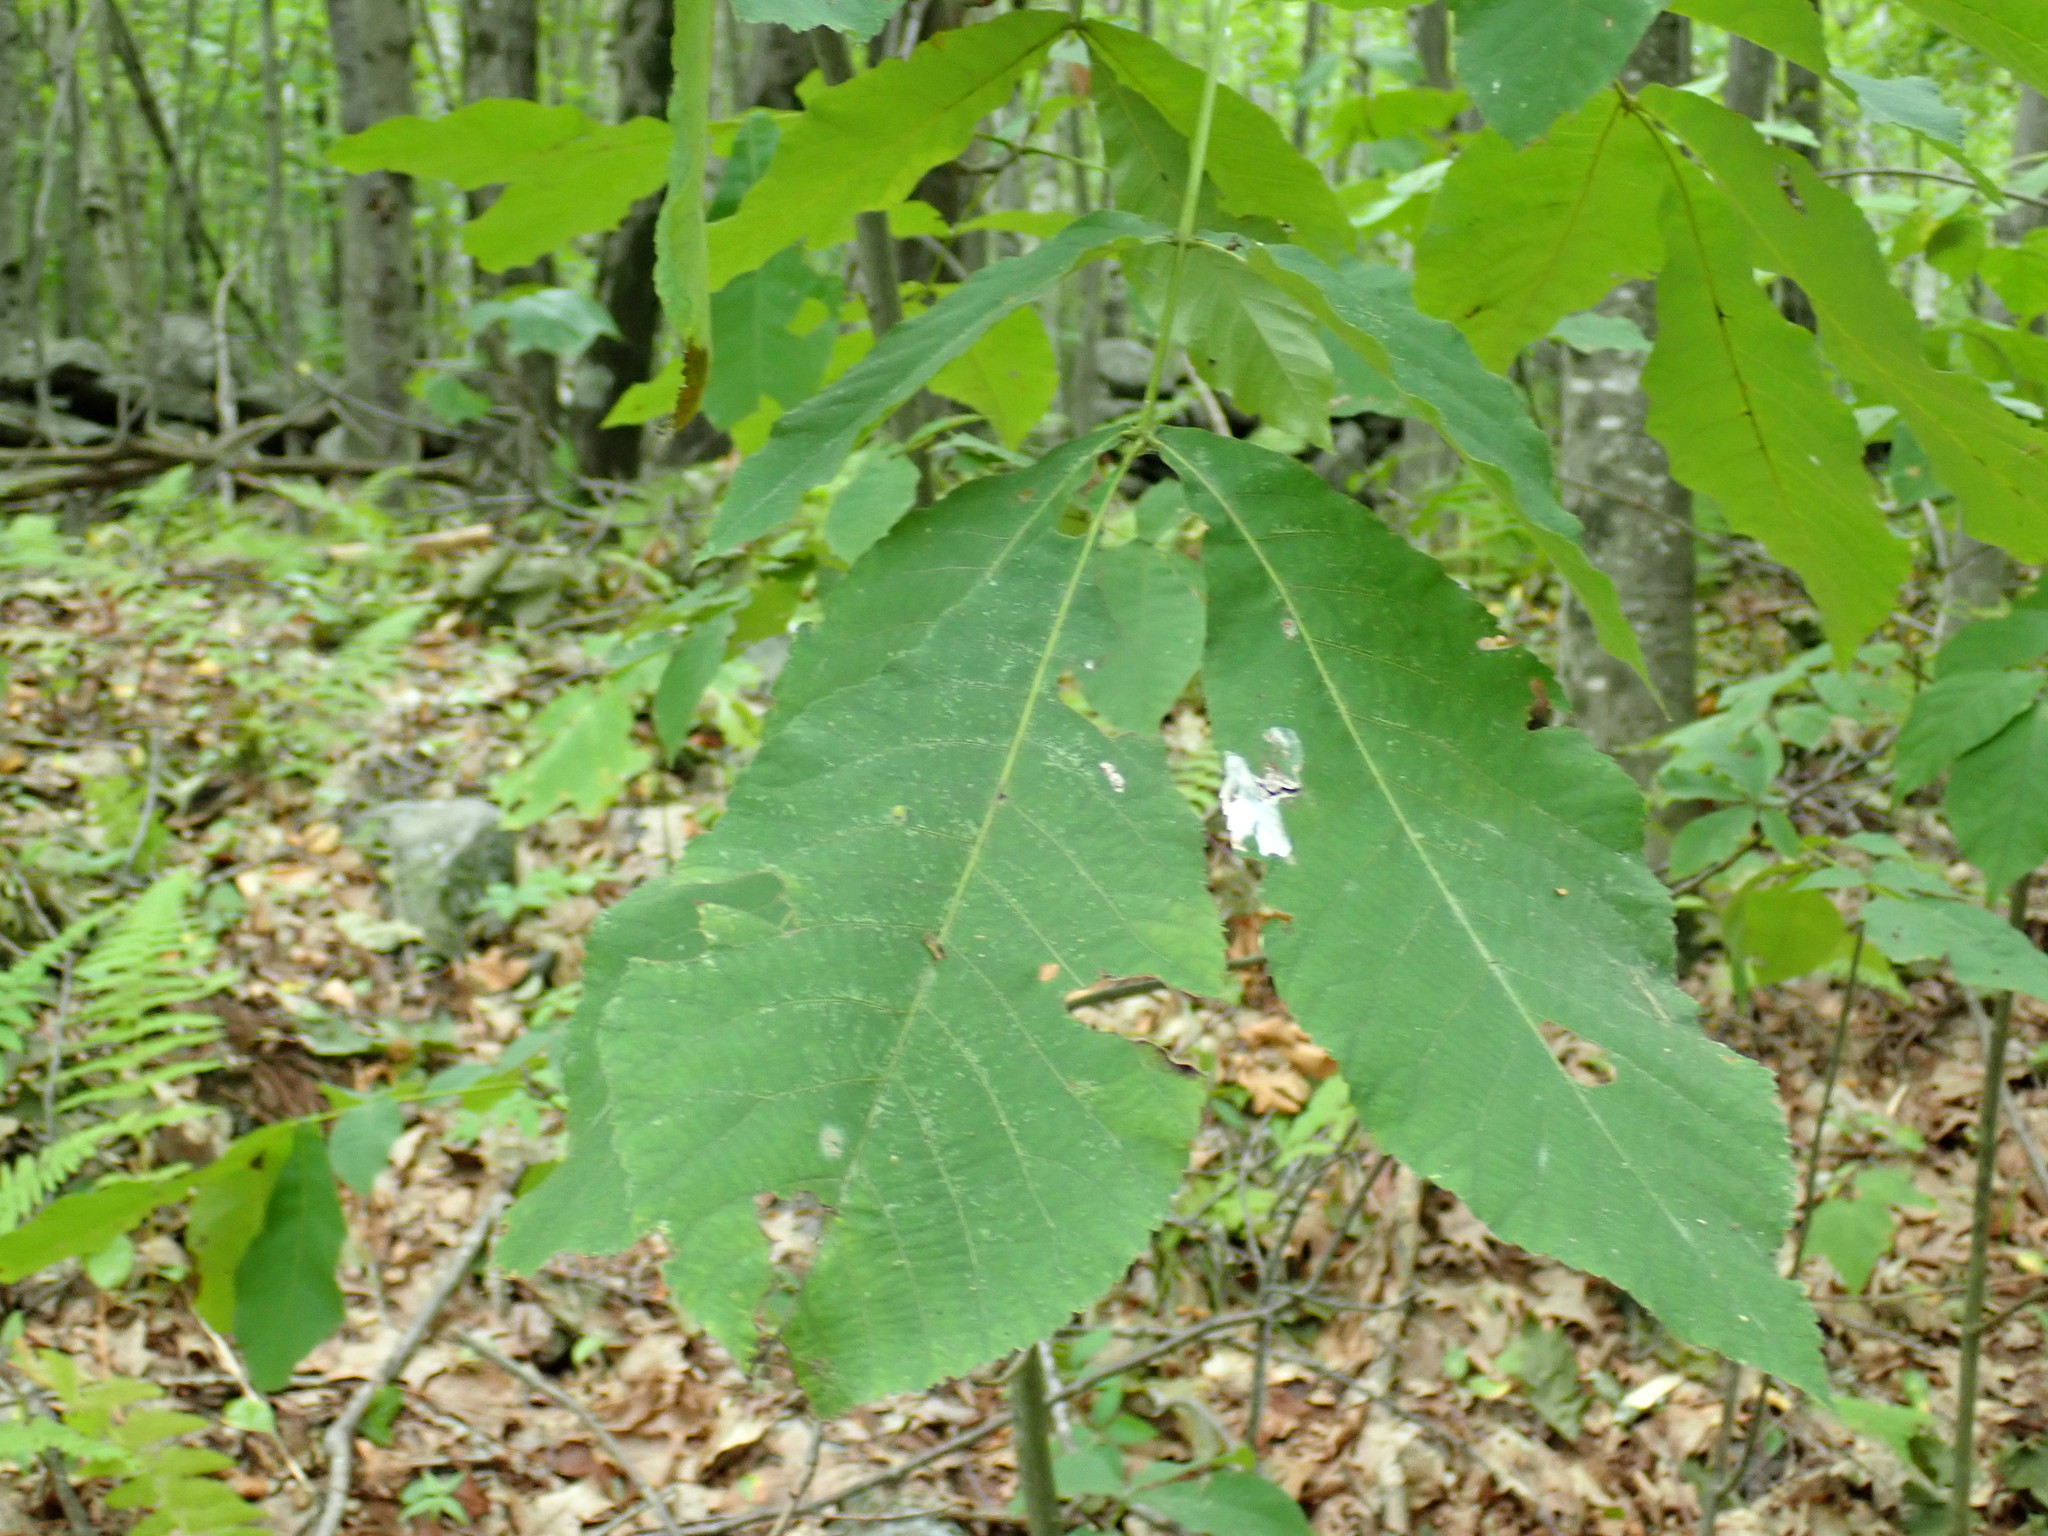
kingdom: Animalia
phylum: Arthropoda
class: Insecta
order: Lepidoptera
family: Erebidae
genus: Hyphantria
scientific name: Hyphantria cunea
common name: American white moth
